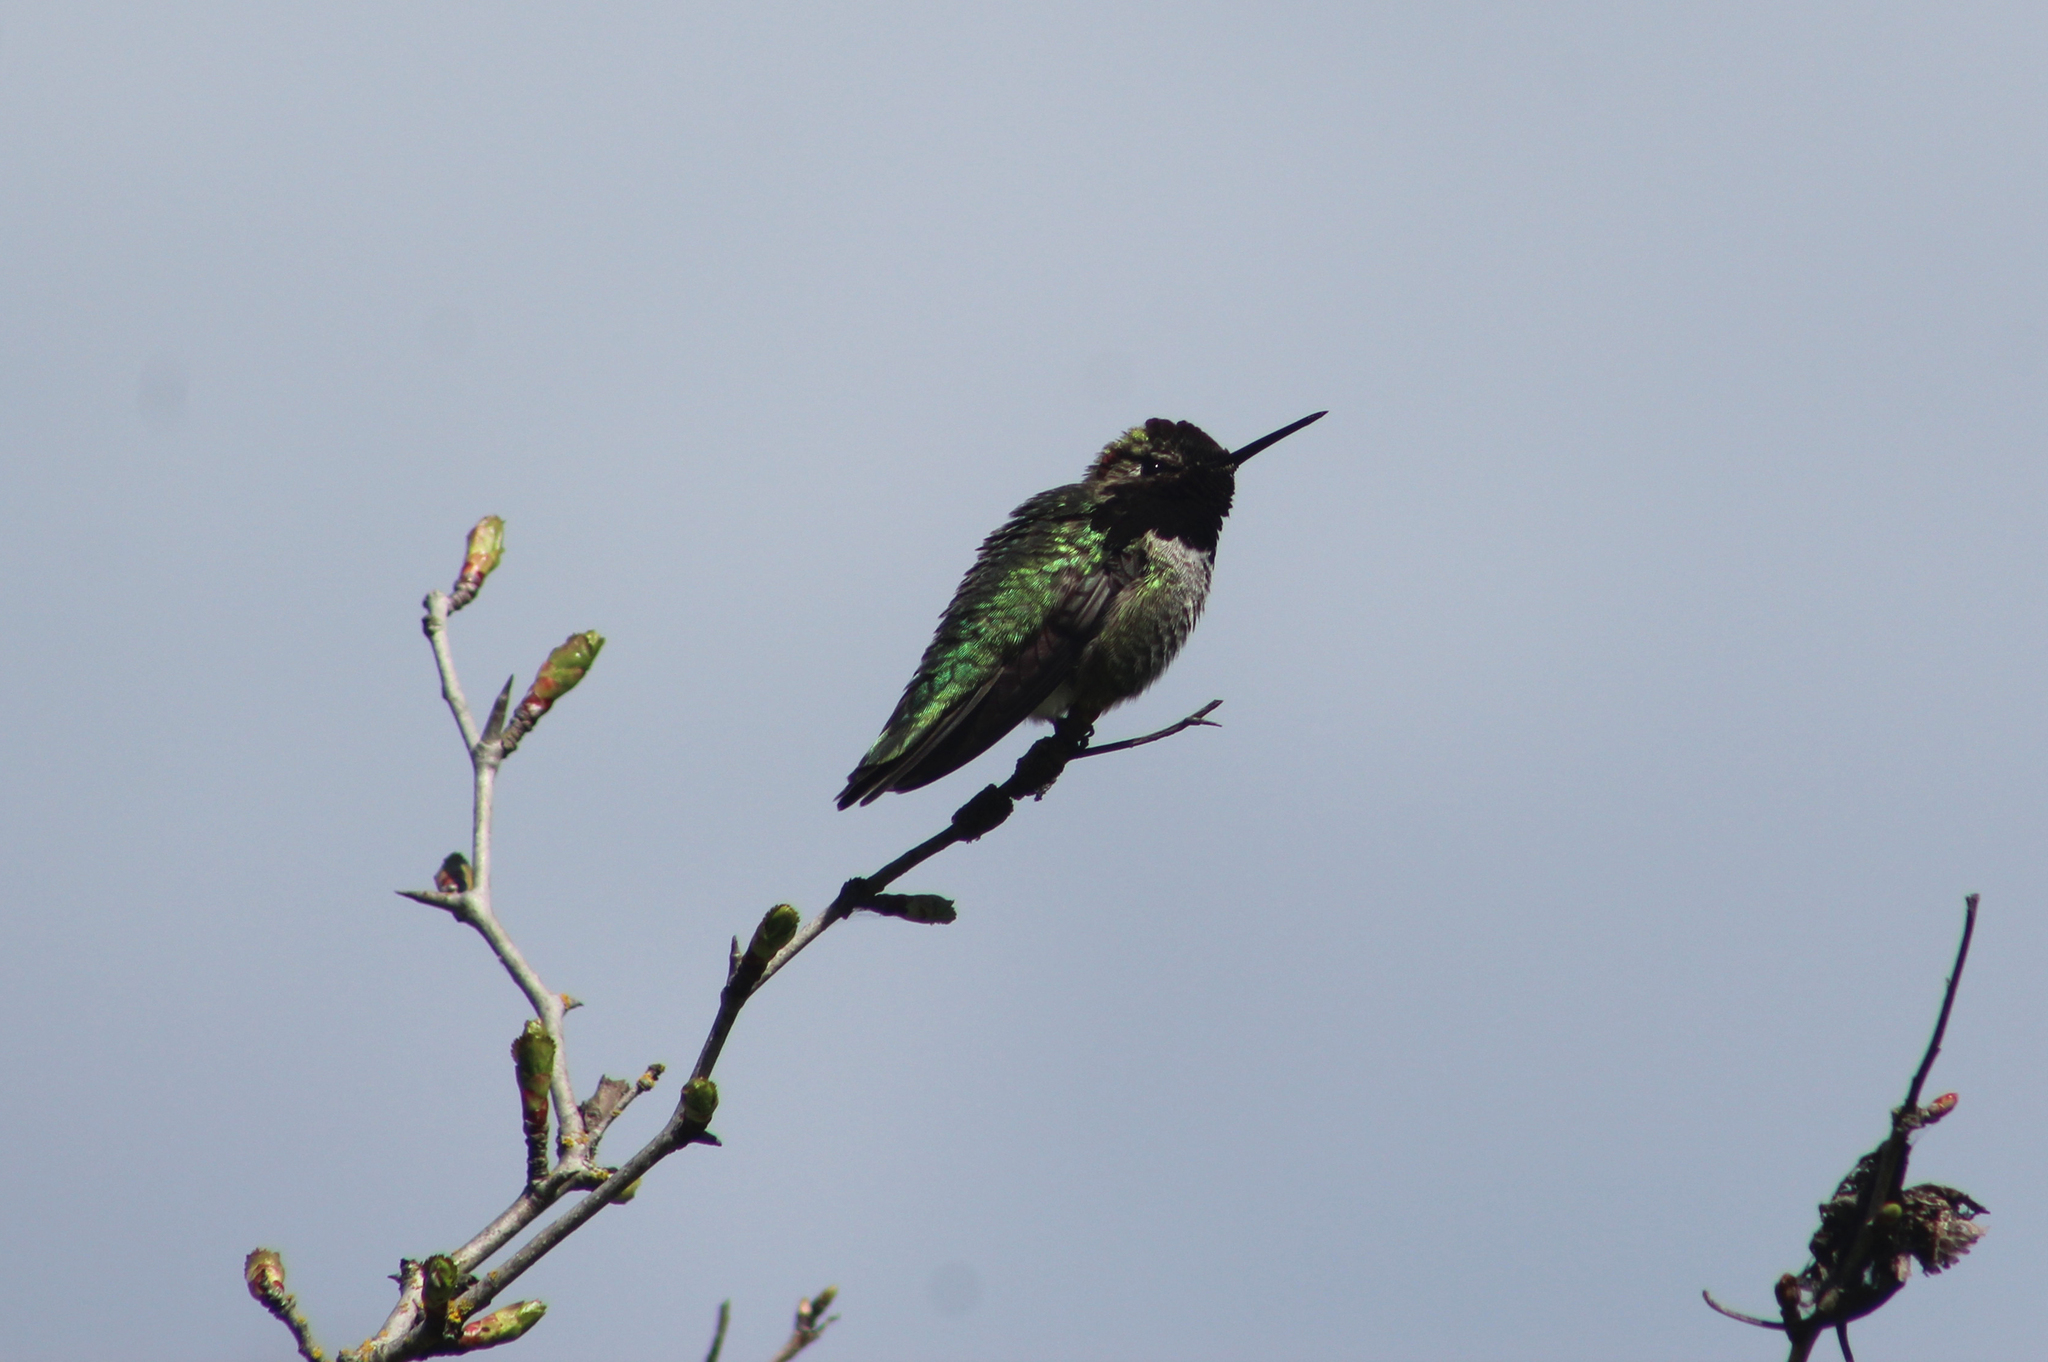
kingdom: Animalia
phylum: Chordata
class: Aves
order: Apodiformes
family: Trochilidae
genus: Calypte
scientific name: Calypte anna
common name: Anna's hummingbird
